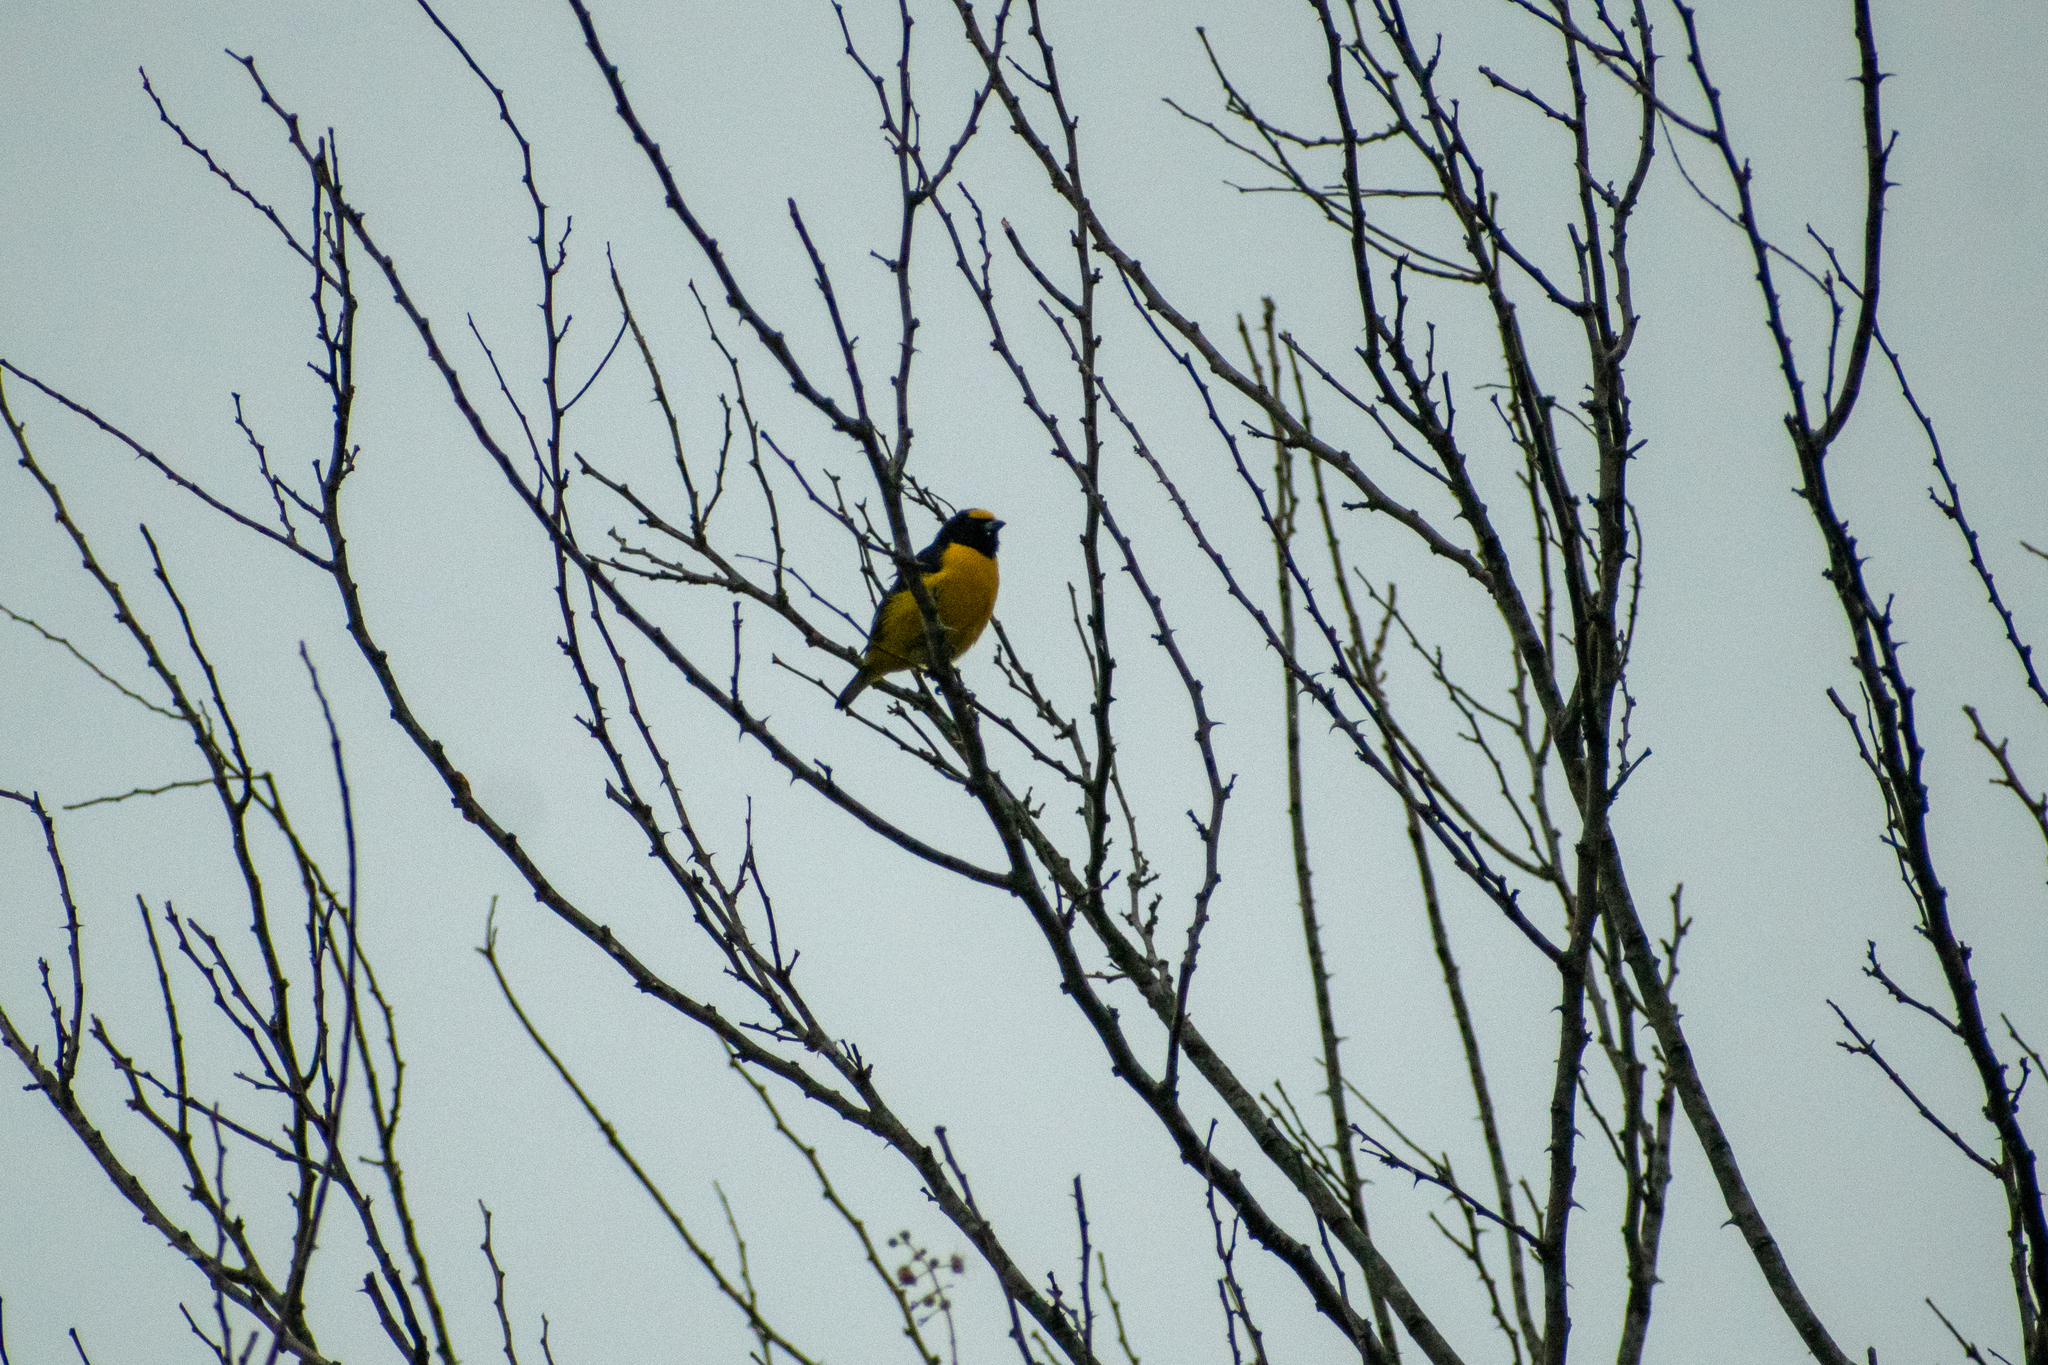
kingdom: Animalia
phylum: Chordata
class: Aves
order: Passeriformes
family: Fringillidae
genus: Euphonia
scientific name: Euphonia chlorotica
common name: Purple-throated euphonia
